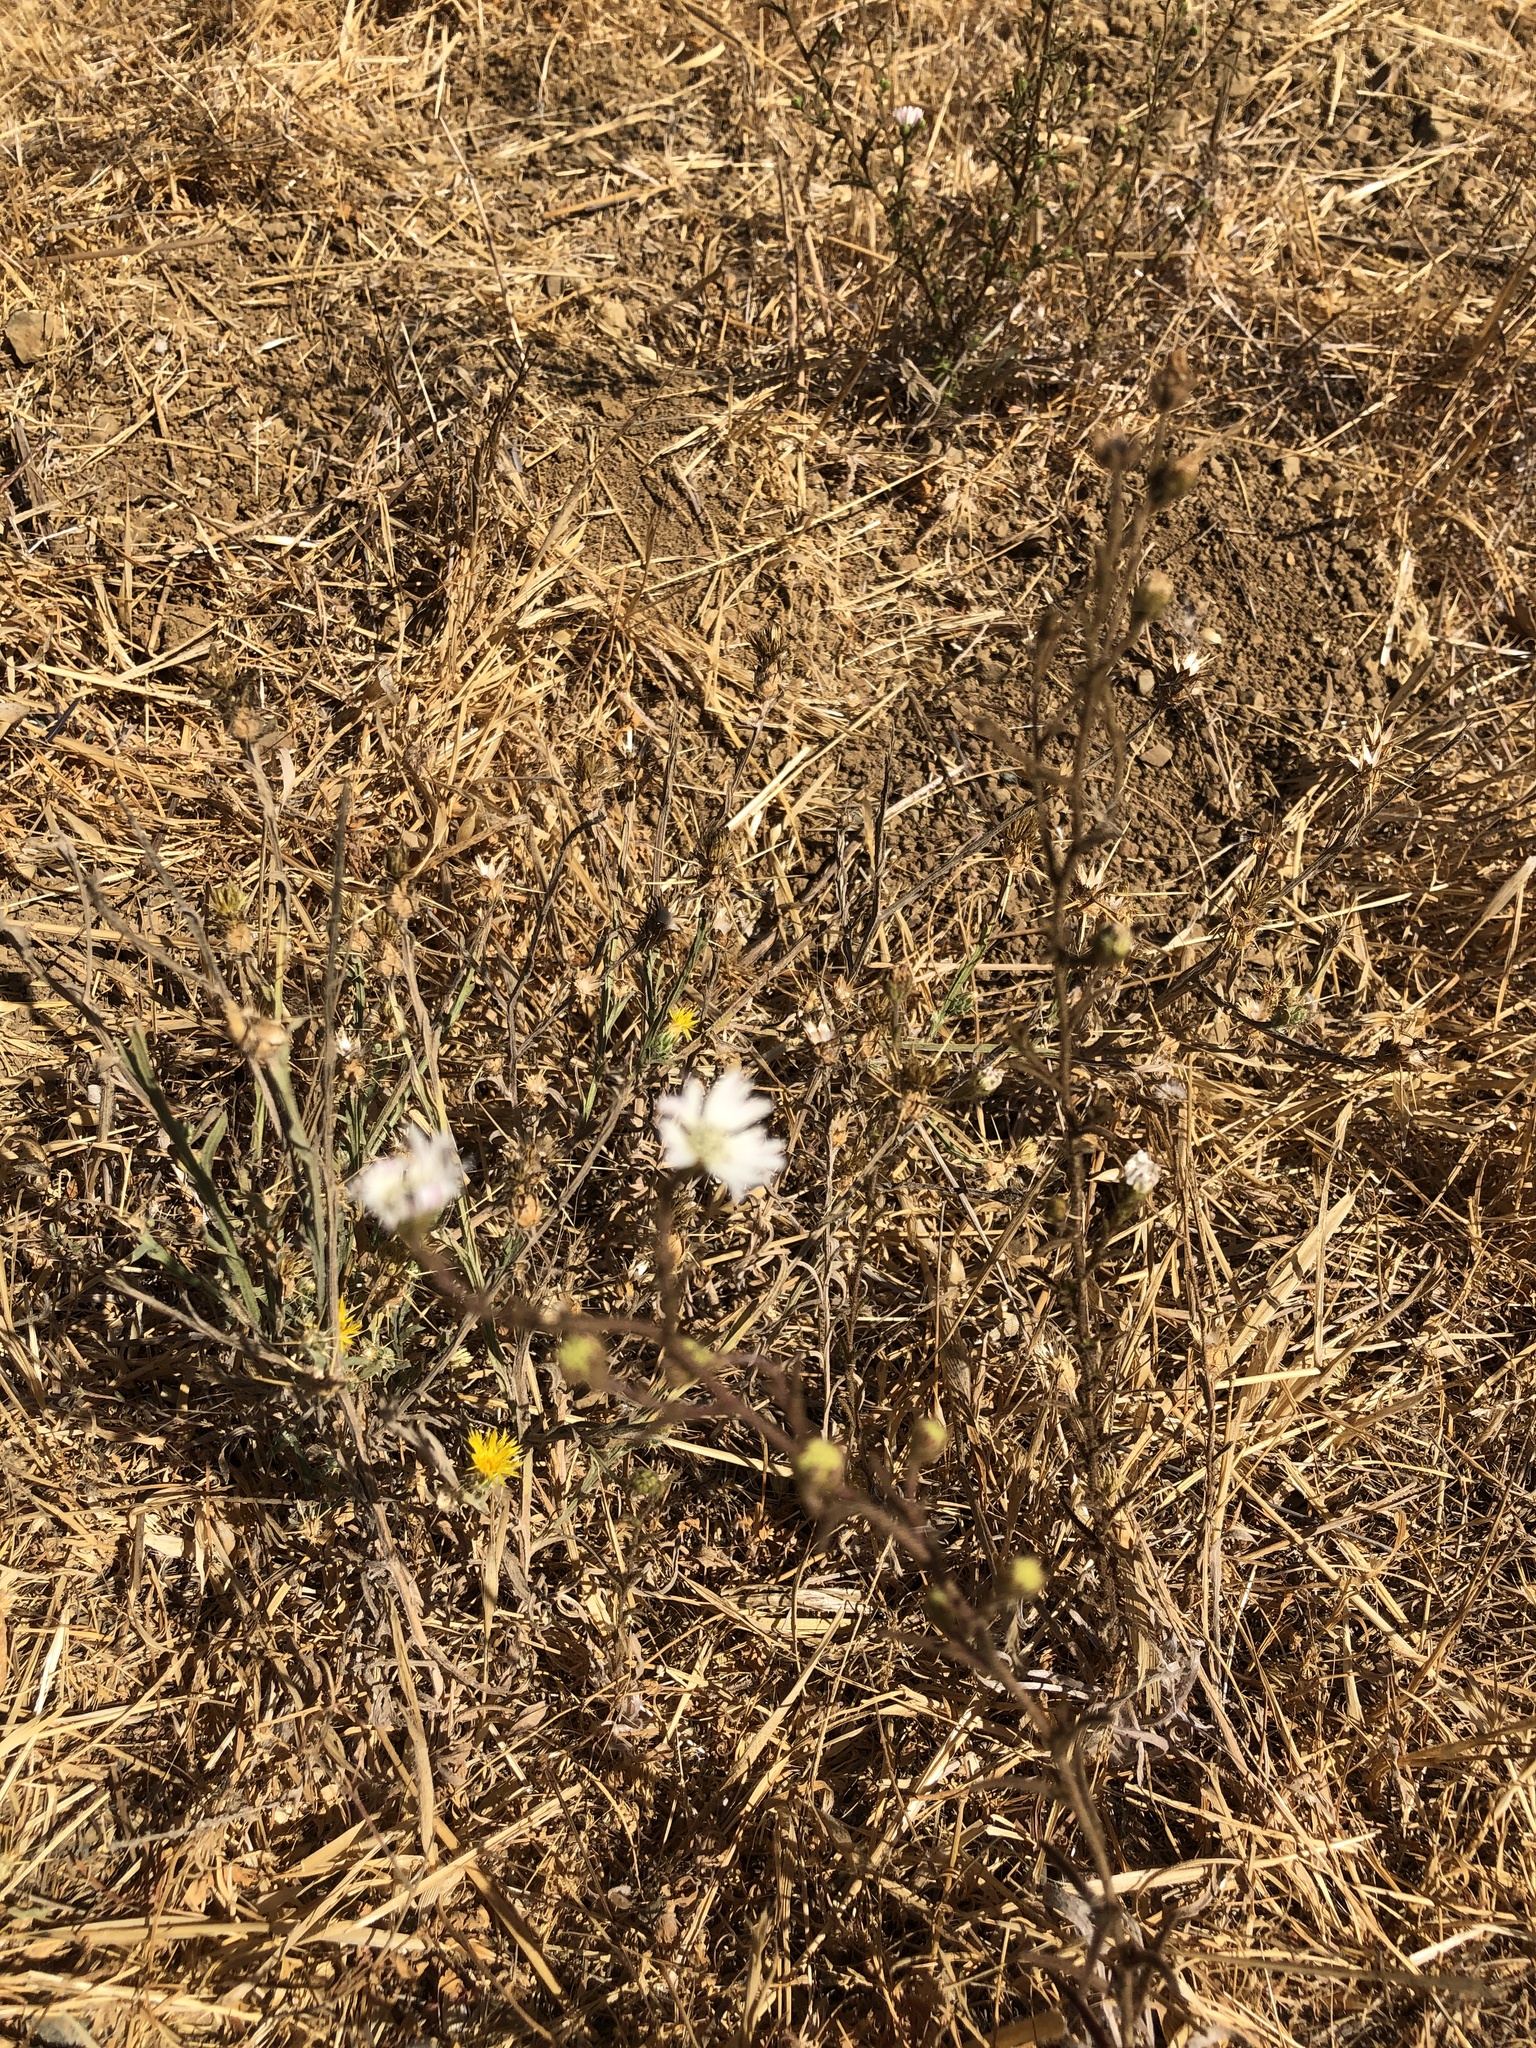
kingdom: Plantae
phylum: Tracheophyta
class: Magnoliopsida
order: Asterales
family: Asteraceae
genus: Hemizonia
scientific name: Hemizonia congesta
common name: Hayfield tarweed
